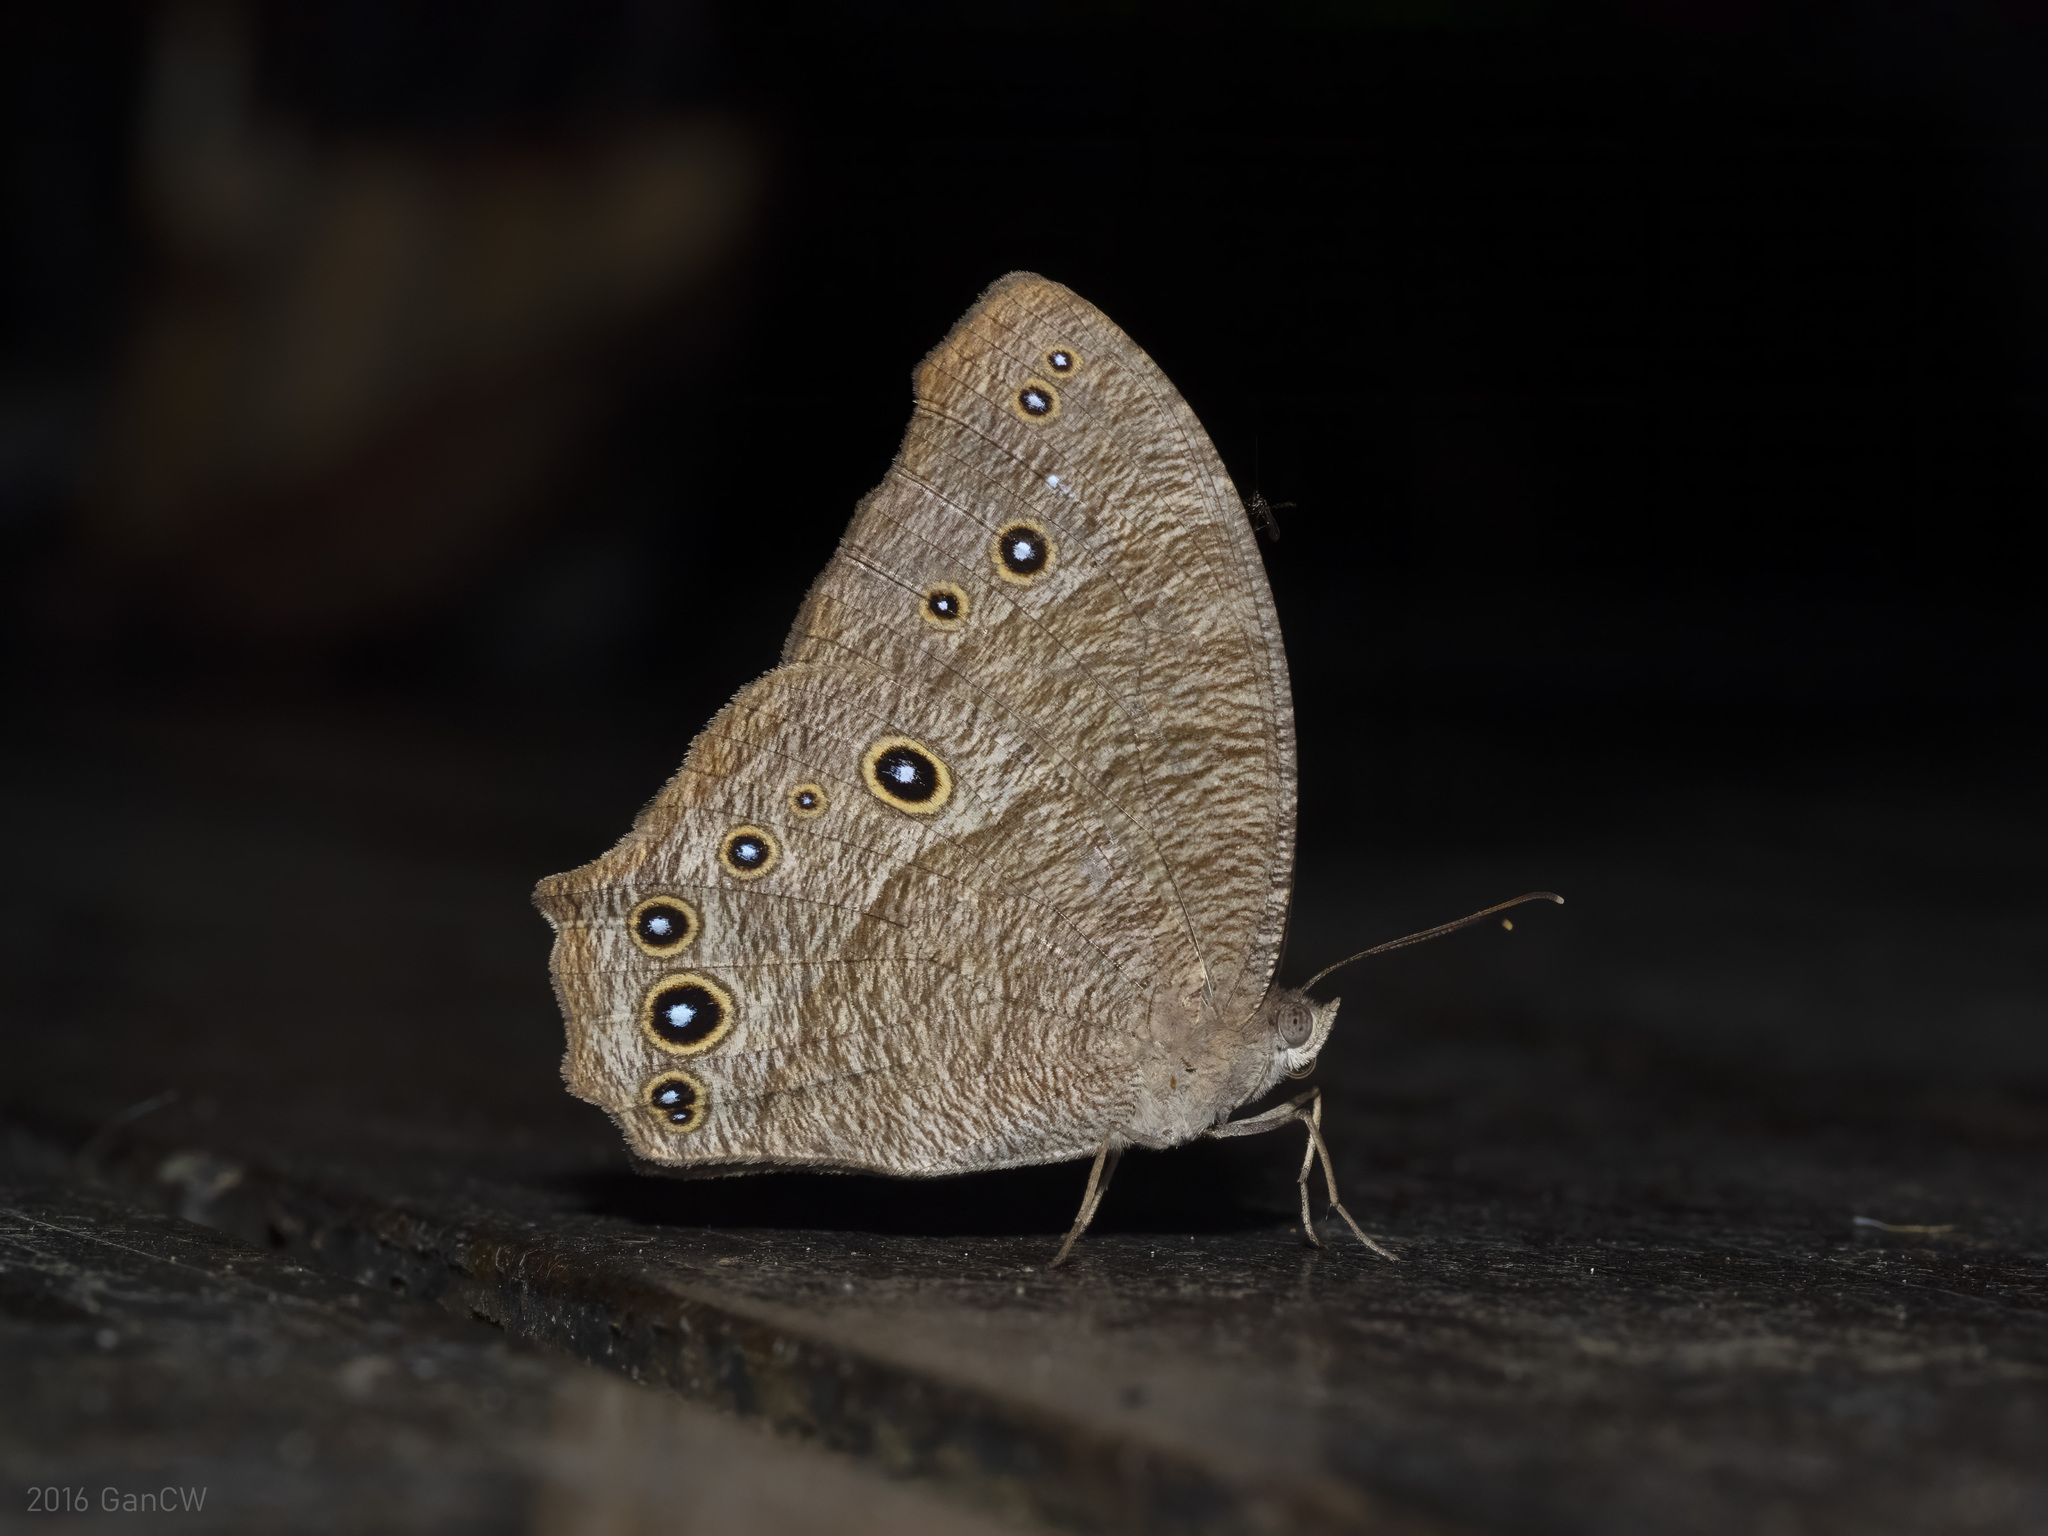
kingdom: Animalia
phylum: Arthropoda
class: Insecta
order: Lepidoptera
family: Nymphalidae
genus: Melanitis
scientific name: Melanitis leda
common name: Twilight brown
